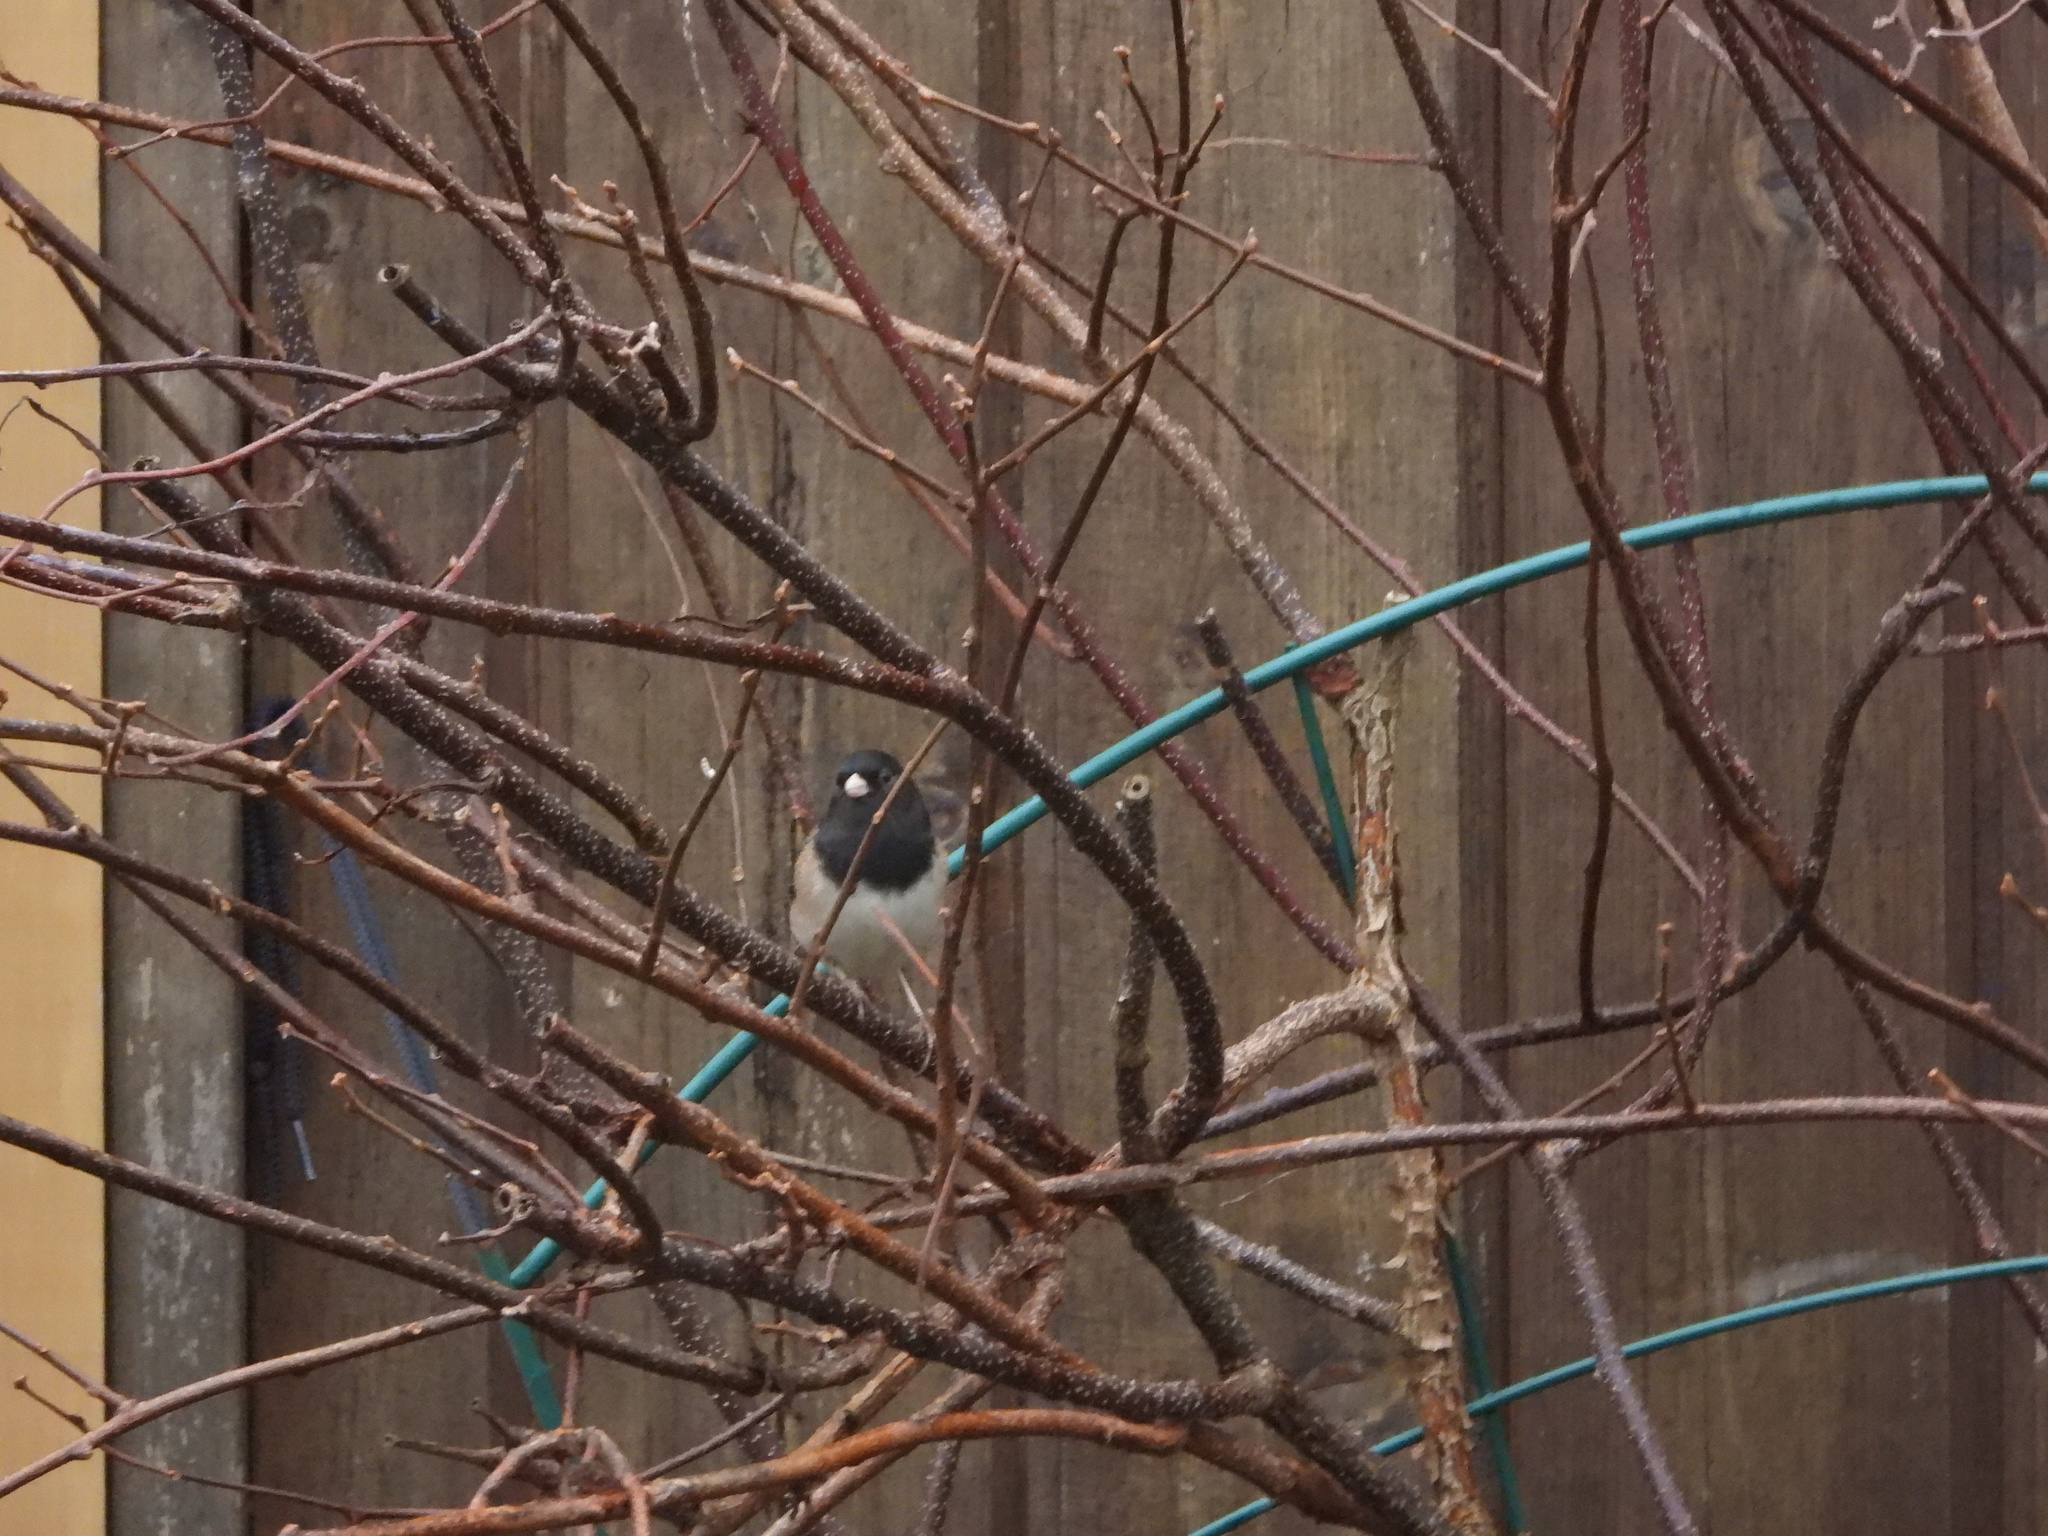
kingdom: Animalia
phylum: Chordata
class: Aves
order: Passeriformes
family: Passerellidae
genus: Junco
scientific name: Junco hyemalis
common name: Dark-eyed junco
